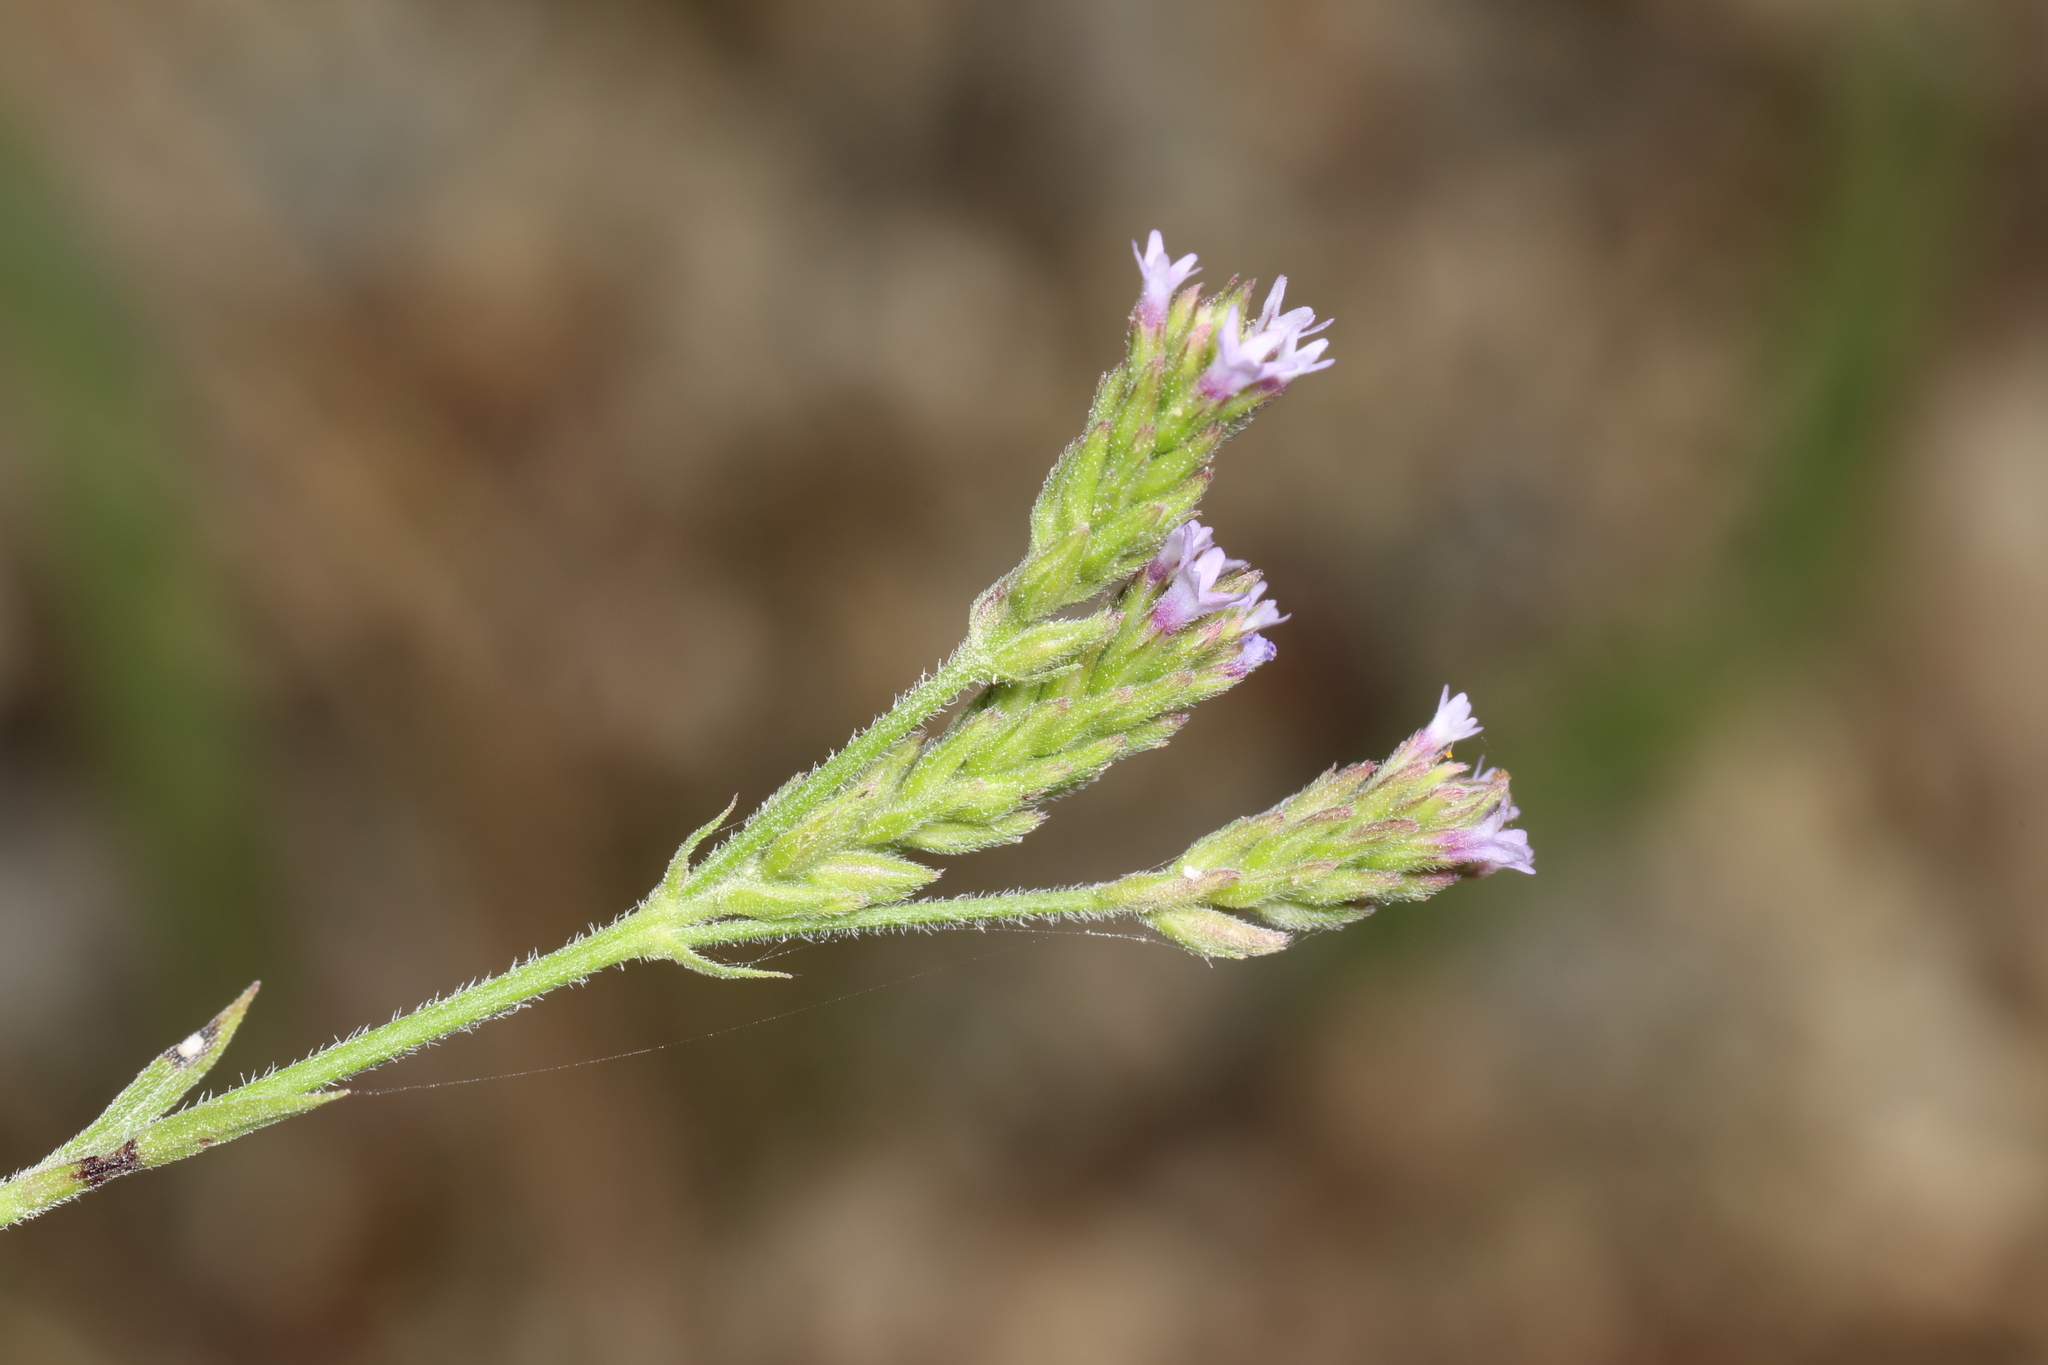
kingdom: Plantae
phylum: Tracheophyta
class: Magnoliopsida
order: Lamiales
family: Verbenaceae
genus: Verbena
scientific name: Verbena brasiliensis
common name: Brazilian vervain
